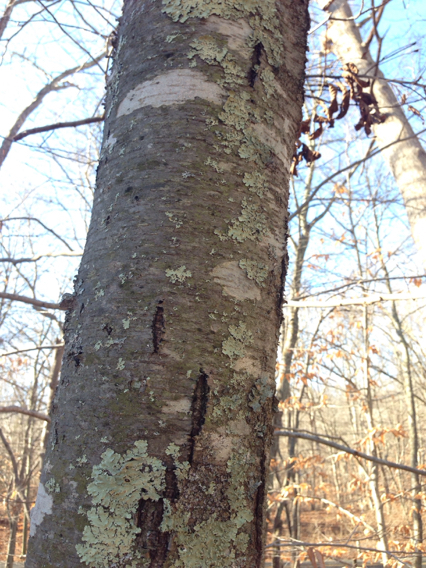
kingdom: Plantae
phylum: Tracheophyta
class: Magnoliopsida
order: Fagales
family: Betulaceae
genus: Betula
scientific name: Betula lenta
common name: Black birch
